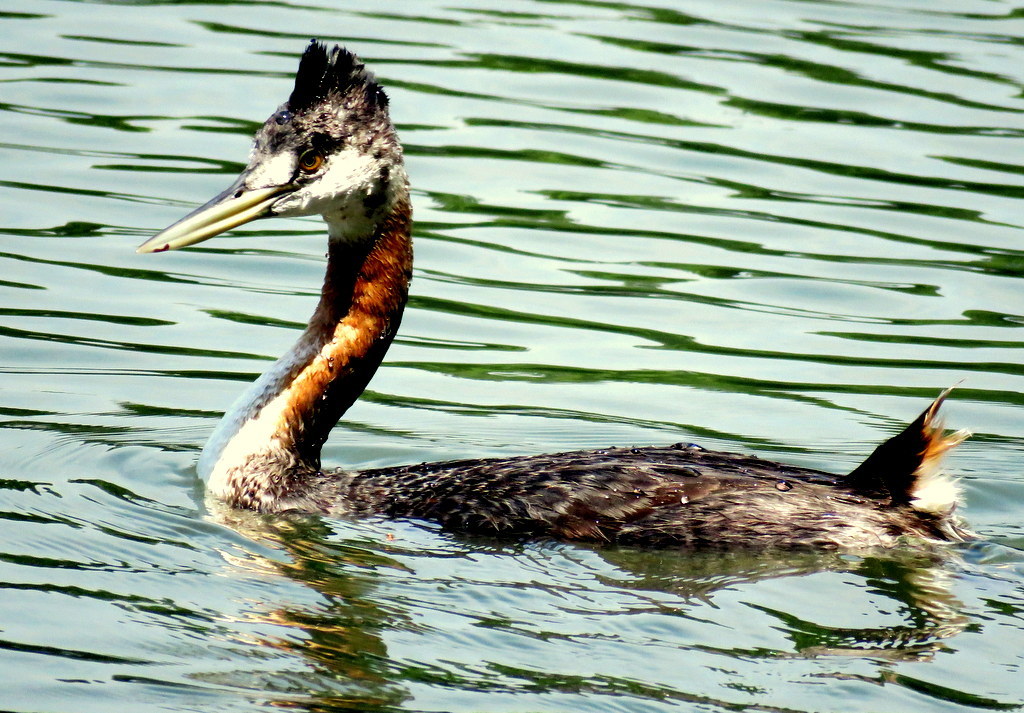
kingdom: Animalia
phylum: Chordata
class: Aves
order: Podicipediformes
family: Podicipedidae
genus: Podiceps
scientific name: Podiceps major
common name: Great grebe
